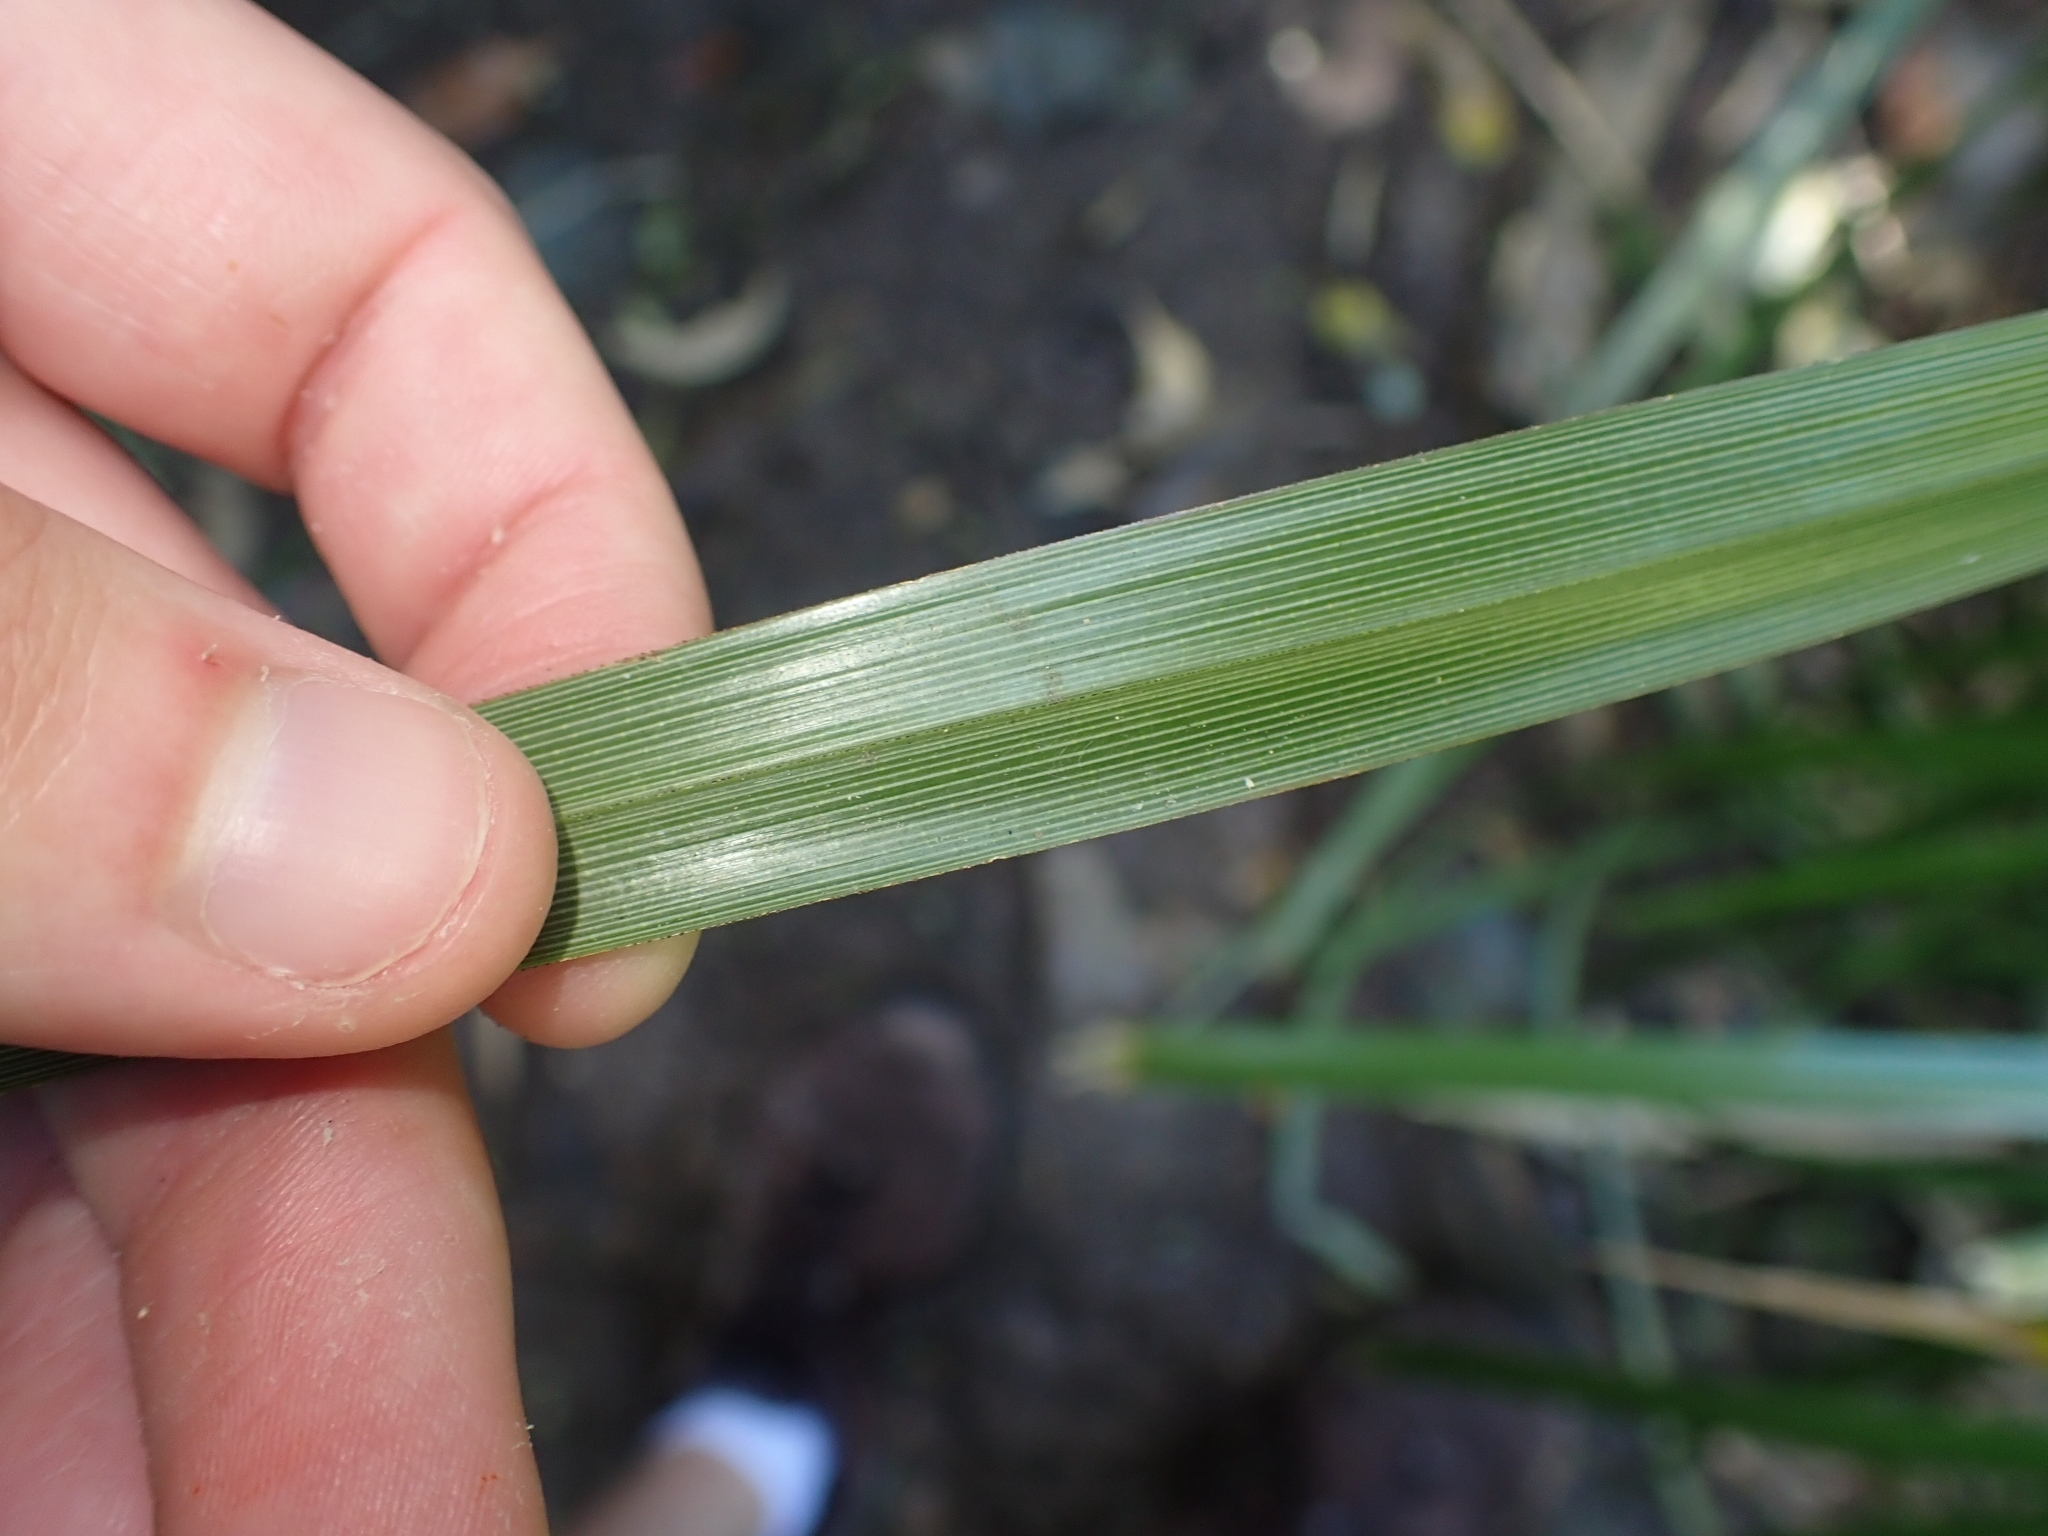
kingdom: Plantae
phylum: Tracheophyta
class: Liliopsida
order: Poales
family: Cyperaceae
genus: Cyperus
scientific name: Cyperus ustulatus
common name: Giant umbrella-sedge
